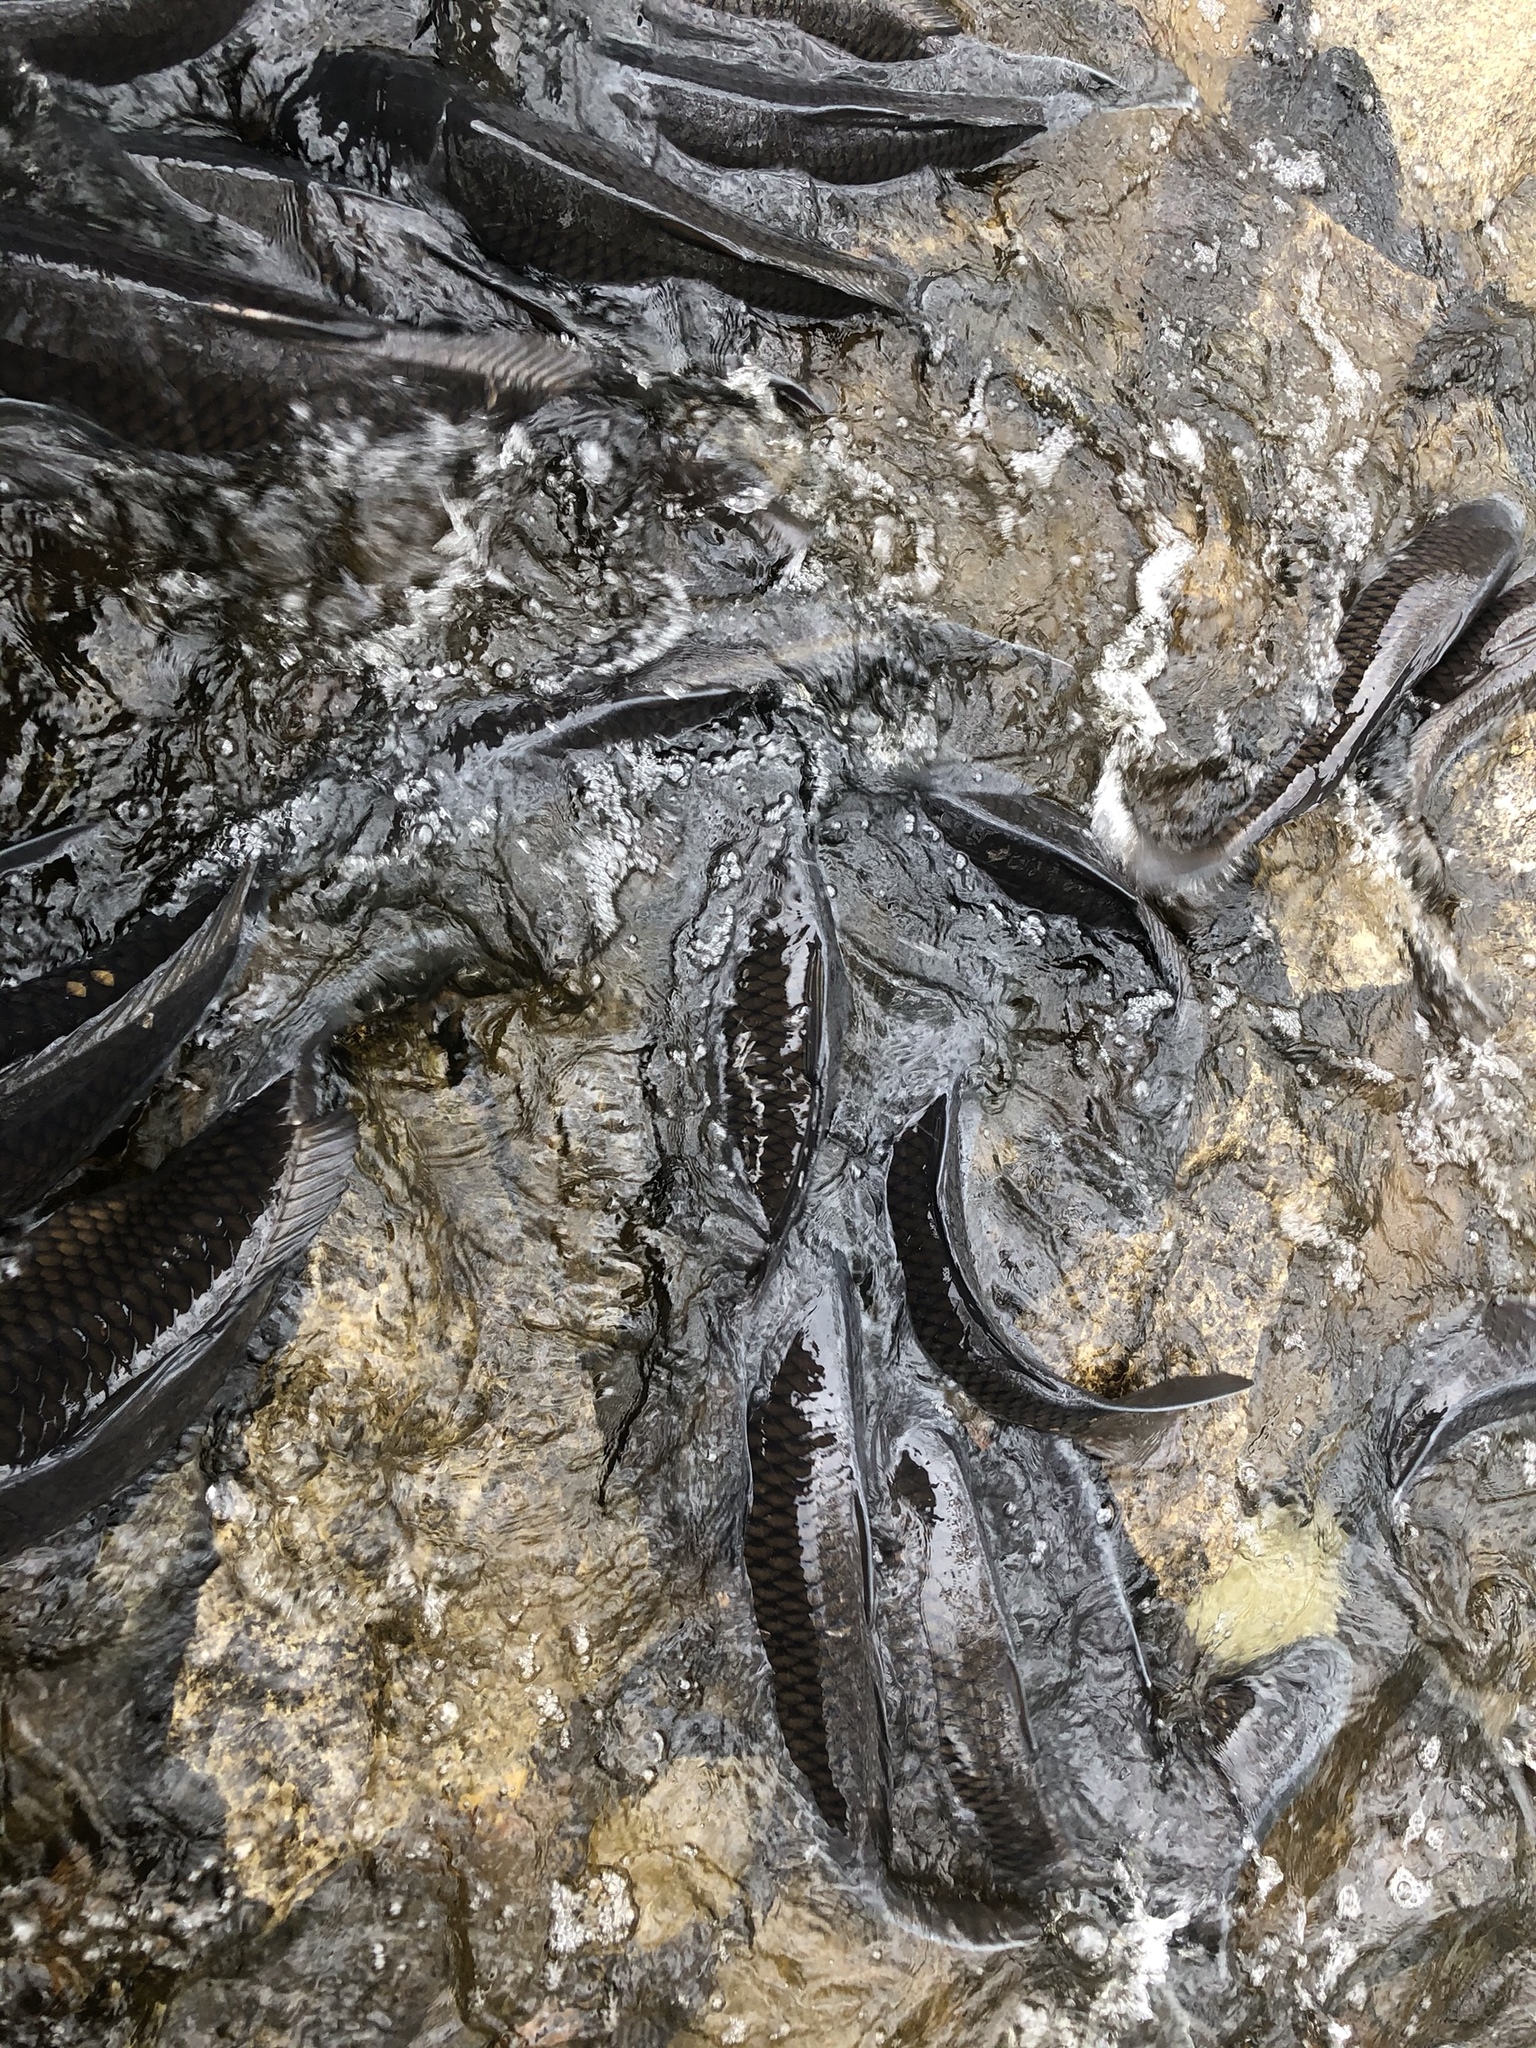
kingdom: Animalia
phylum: Chordata
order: Cypriniformes
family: Cyprinidae
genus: Cyprinus
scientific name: Cyprinus carpio
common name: Common carp
